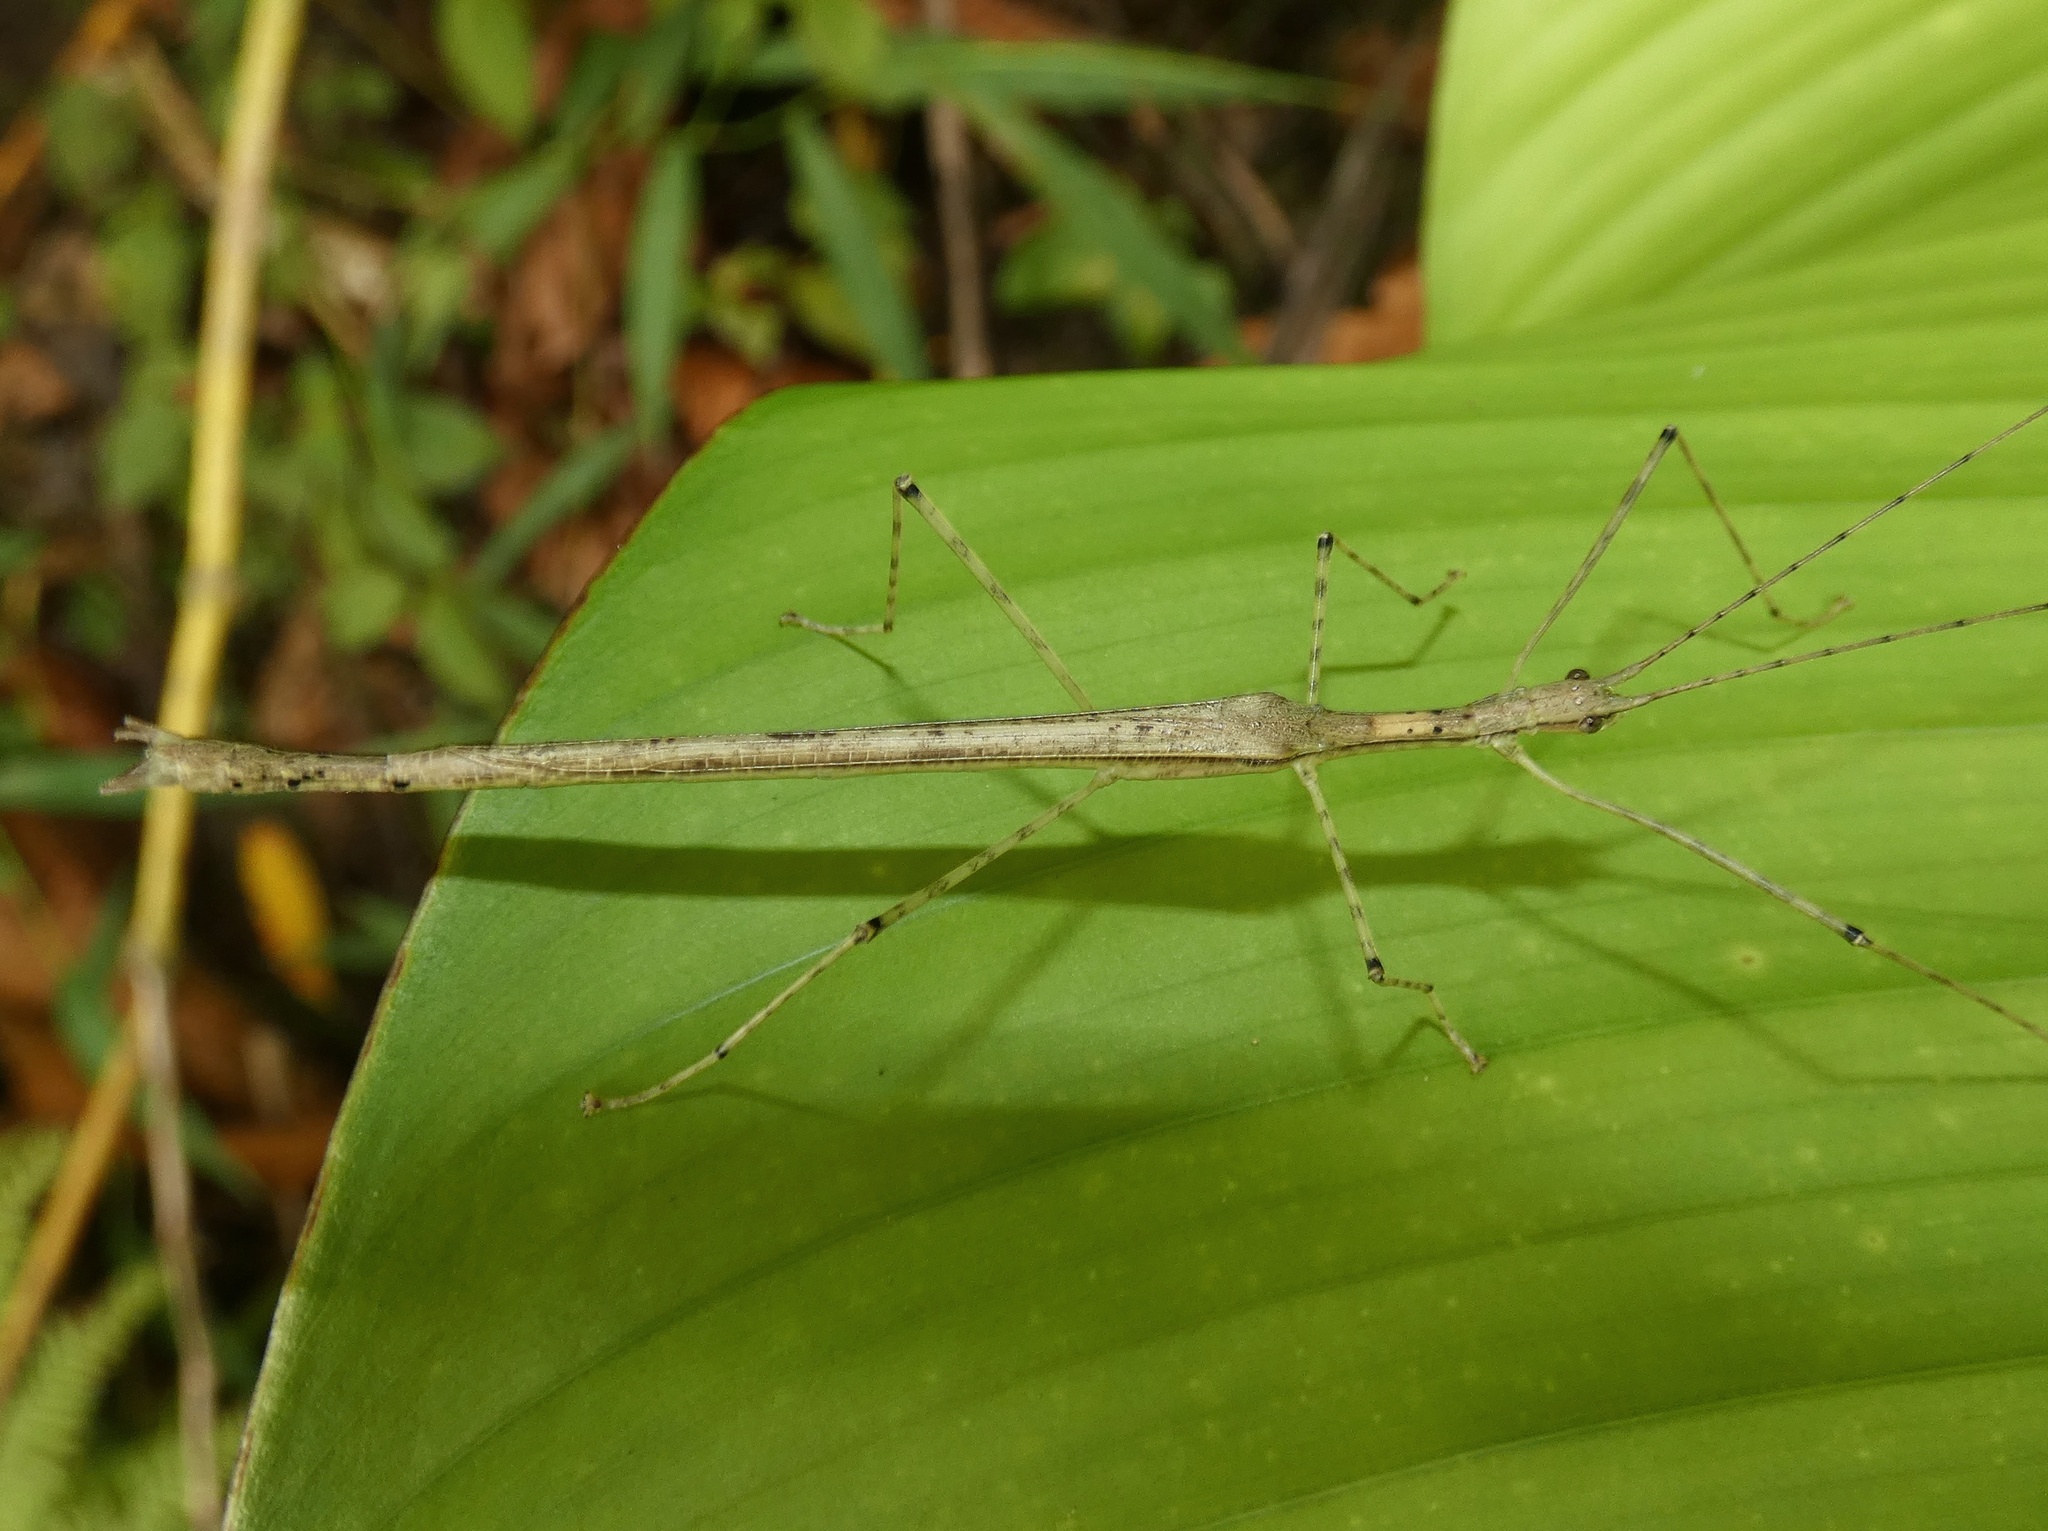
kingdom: Animalia
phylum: Arthropoda
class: Insecta
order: Phasmida
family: Pseudophasmatidae
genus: Pseudophasma
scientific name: Pseudophasma phaeton
